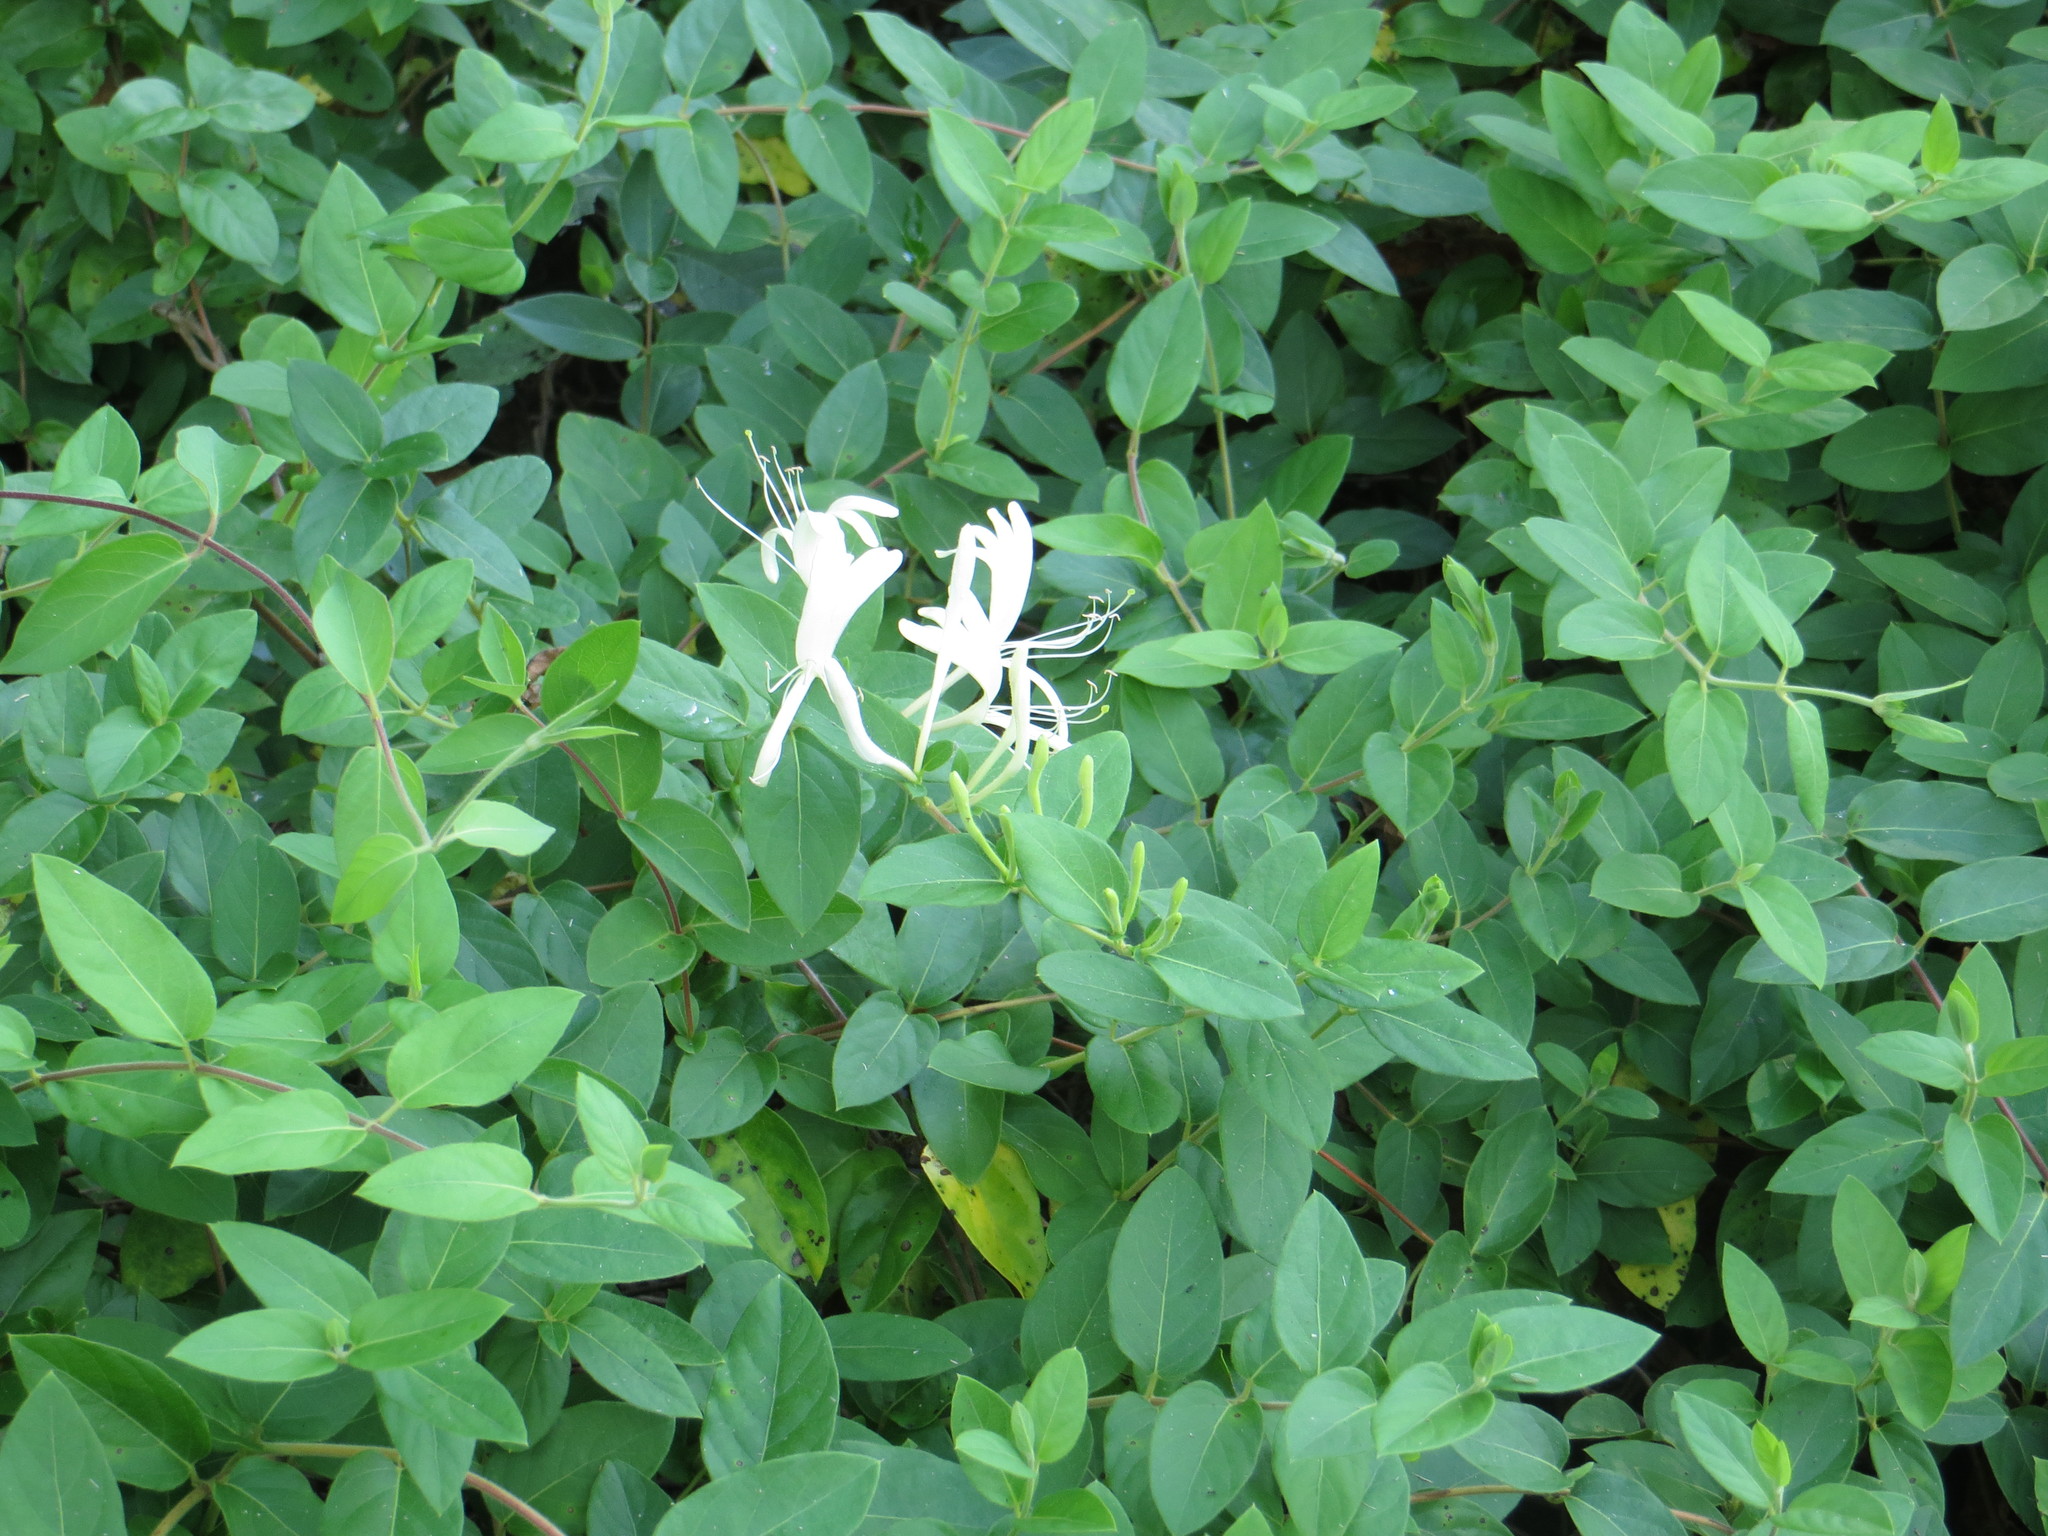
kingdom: Plantae
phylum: Tracheophyta
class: Magnoliopsida
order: Dipsacales
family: Caprifoliaceae
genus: Lonicera
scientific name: Lonicera japonica
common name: Japanese honeysuckle
